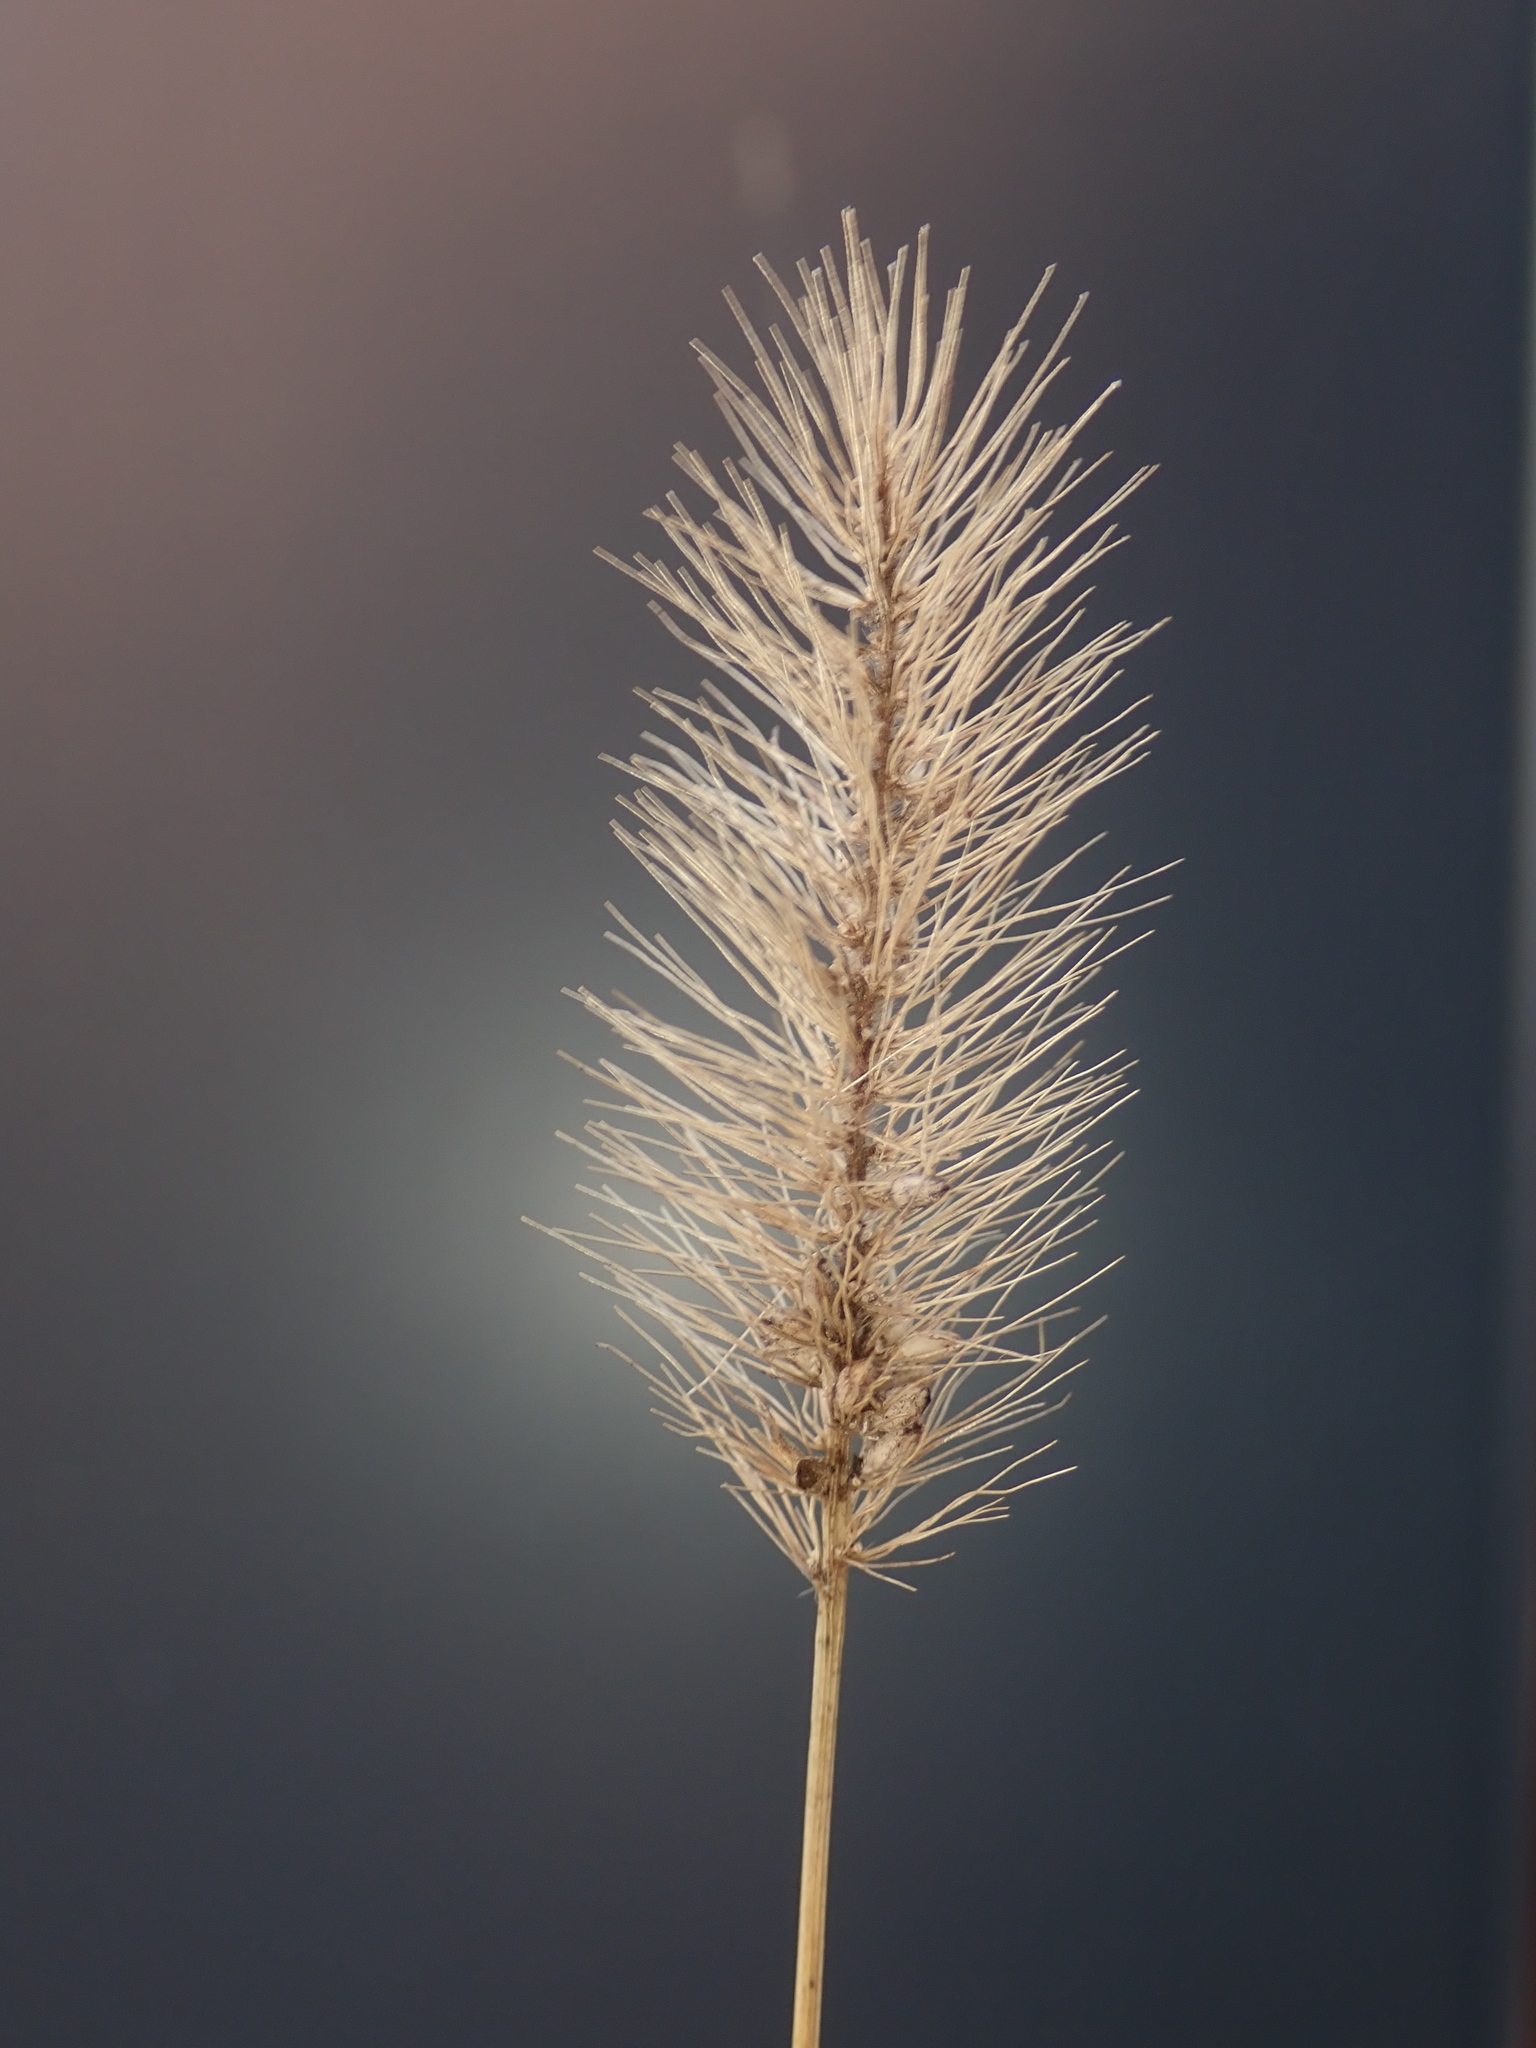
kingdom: Plantae
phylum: Tracheophyta
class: Liliopsida
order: Poales
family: Poaceae
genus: Setaria
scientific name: Setaria viridis
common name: Green bristlegrass
